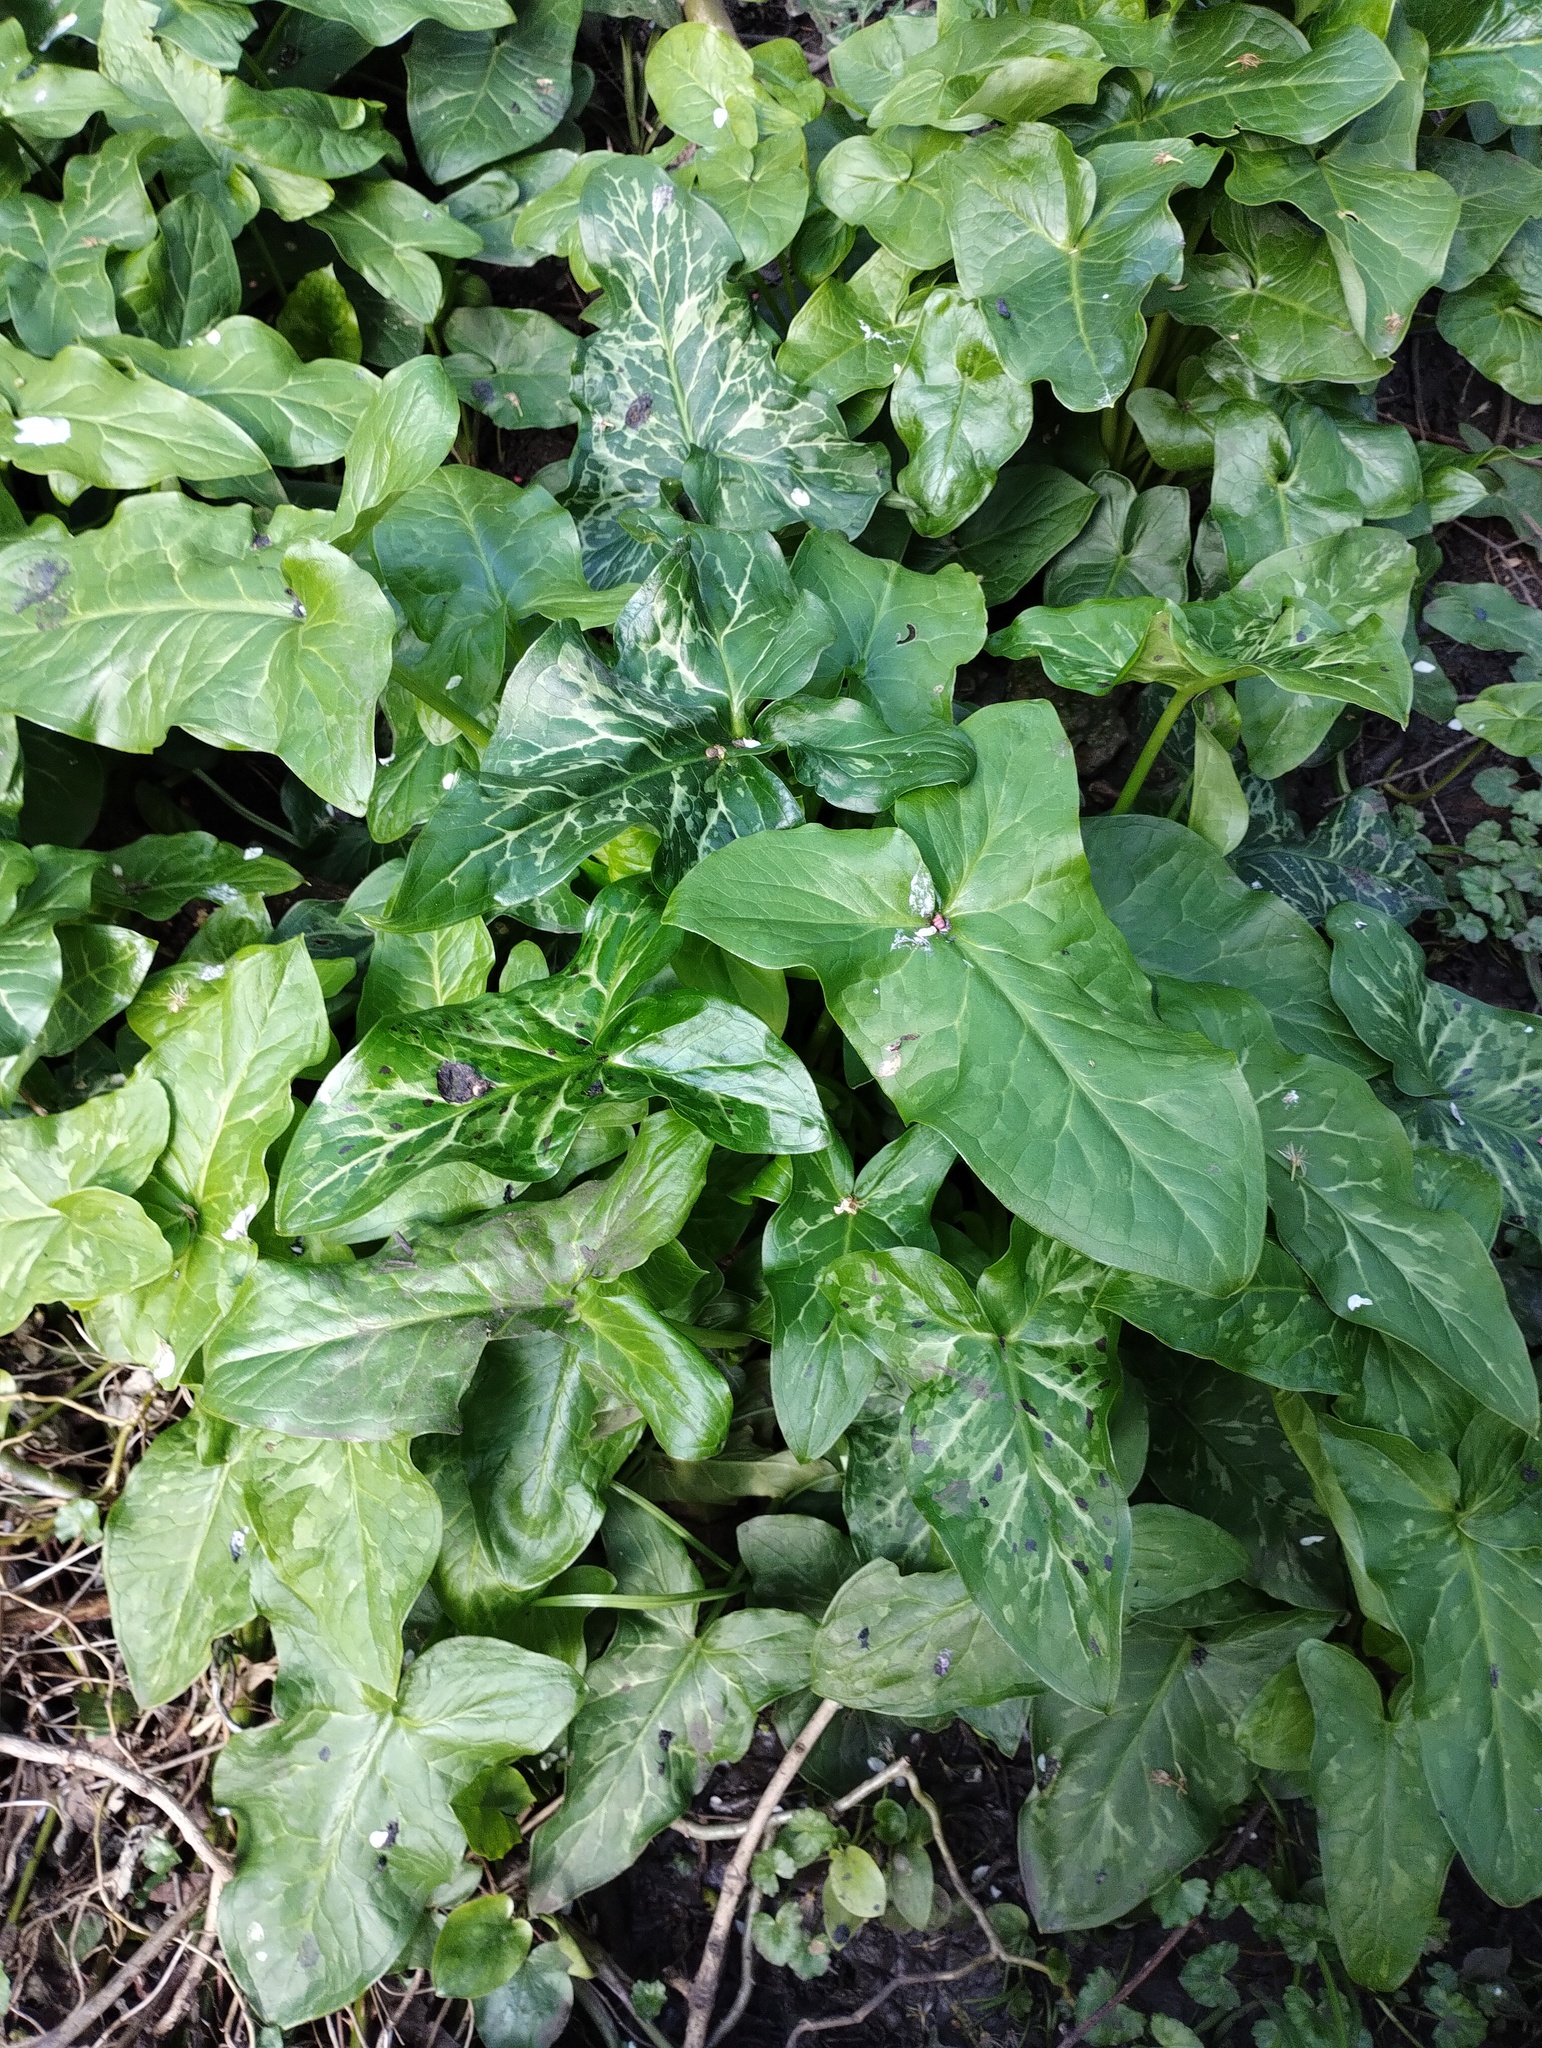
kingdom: Plantae
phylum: Tracheophyta
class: Liliopsida
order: Alismatales
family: Araceae
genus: Arum
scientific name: Arum italicum
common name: Italian lords-and-ladies
